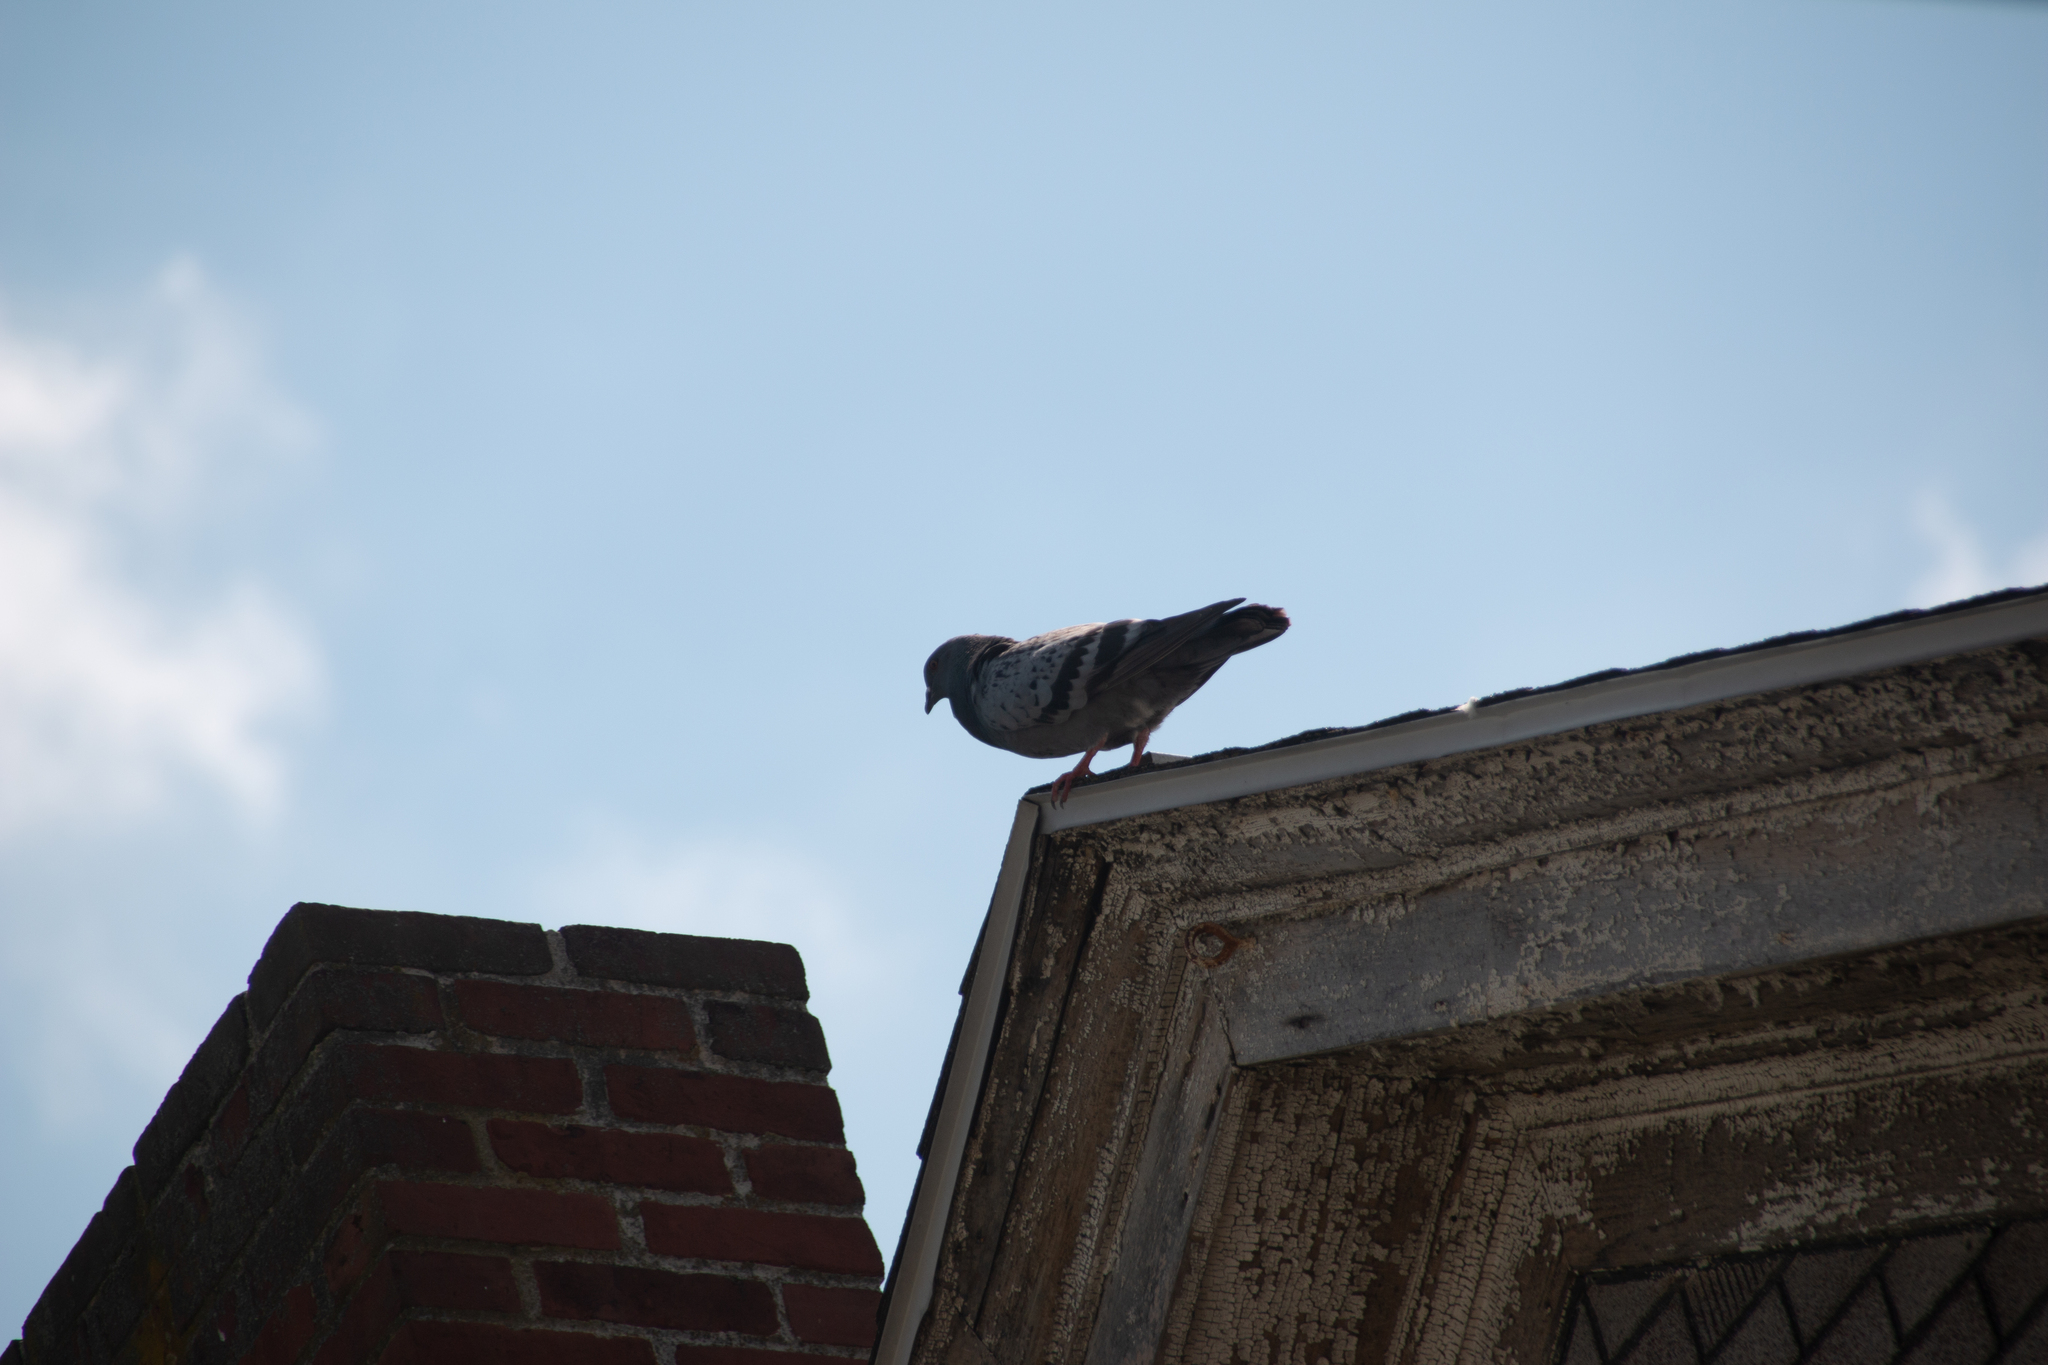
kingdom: Animalia
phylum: Chordata
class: Aves
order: Columbiformes
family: Columbidae
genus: Columba
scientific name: Columba livia
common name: Rock pigeon
